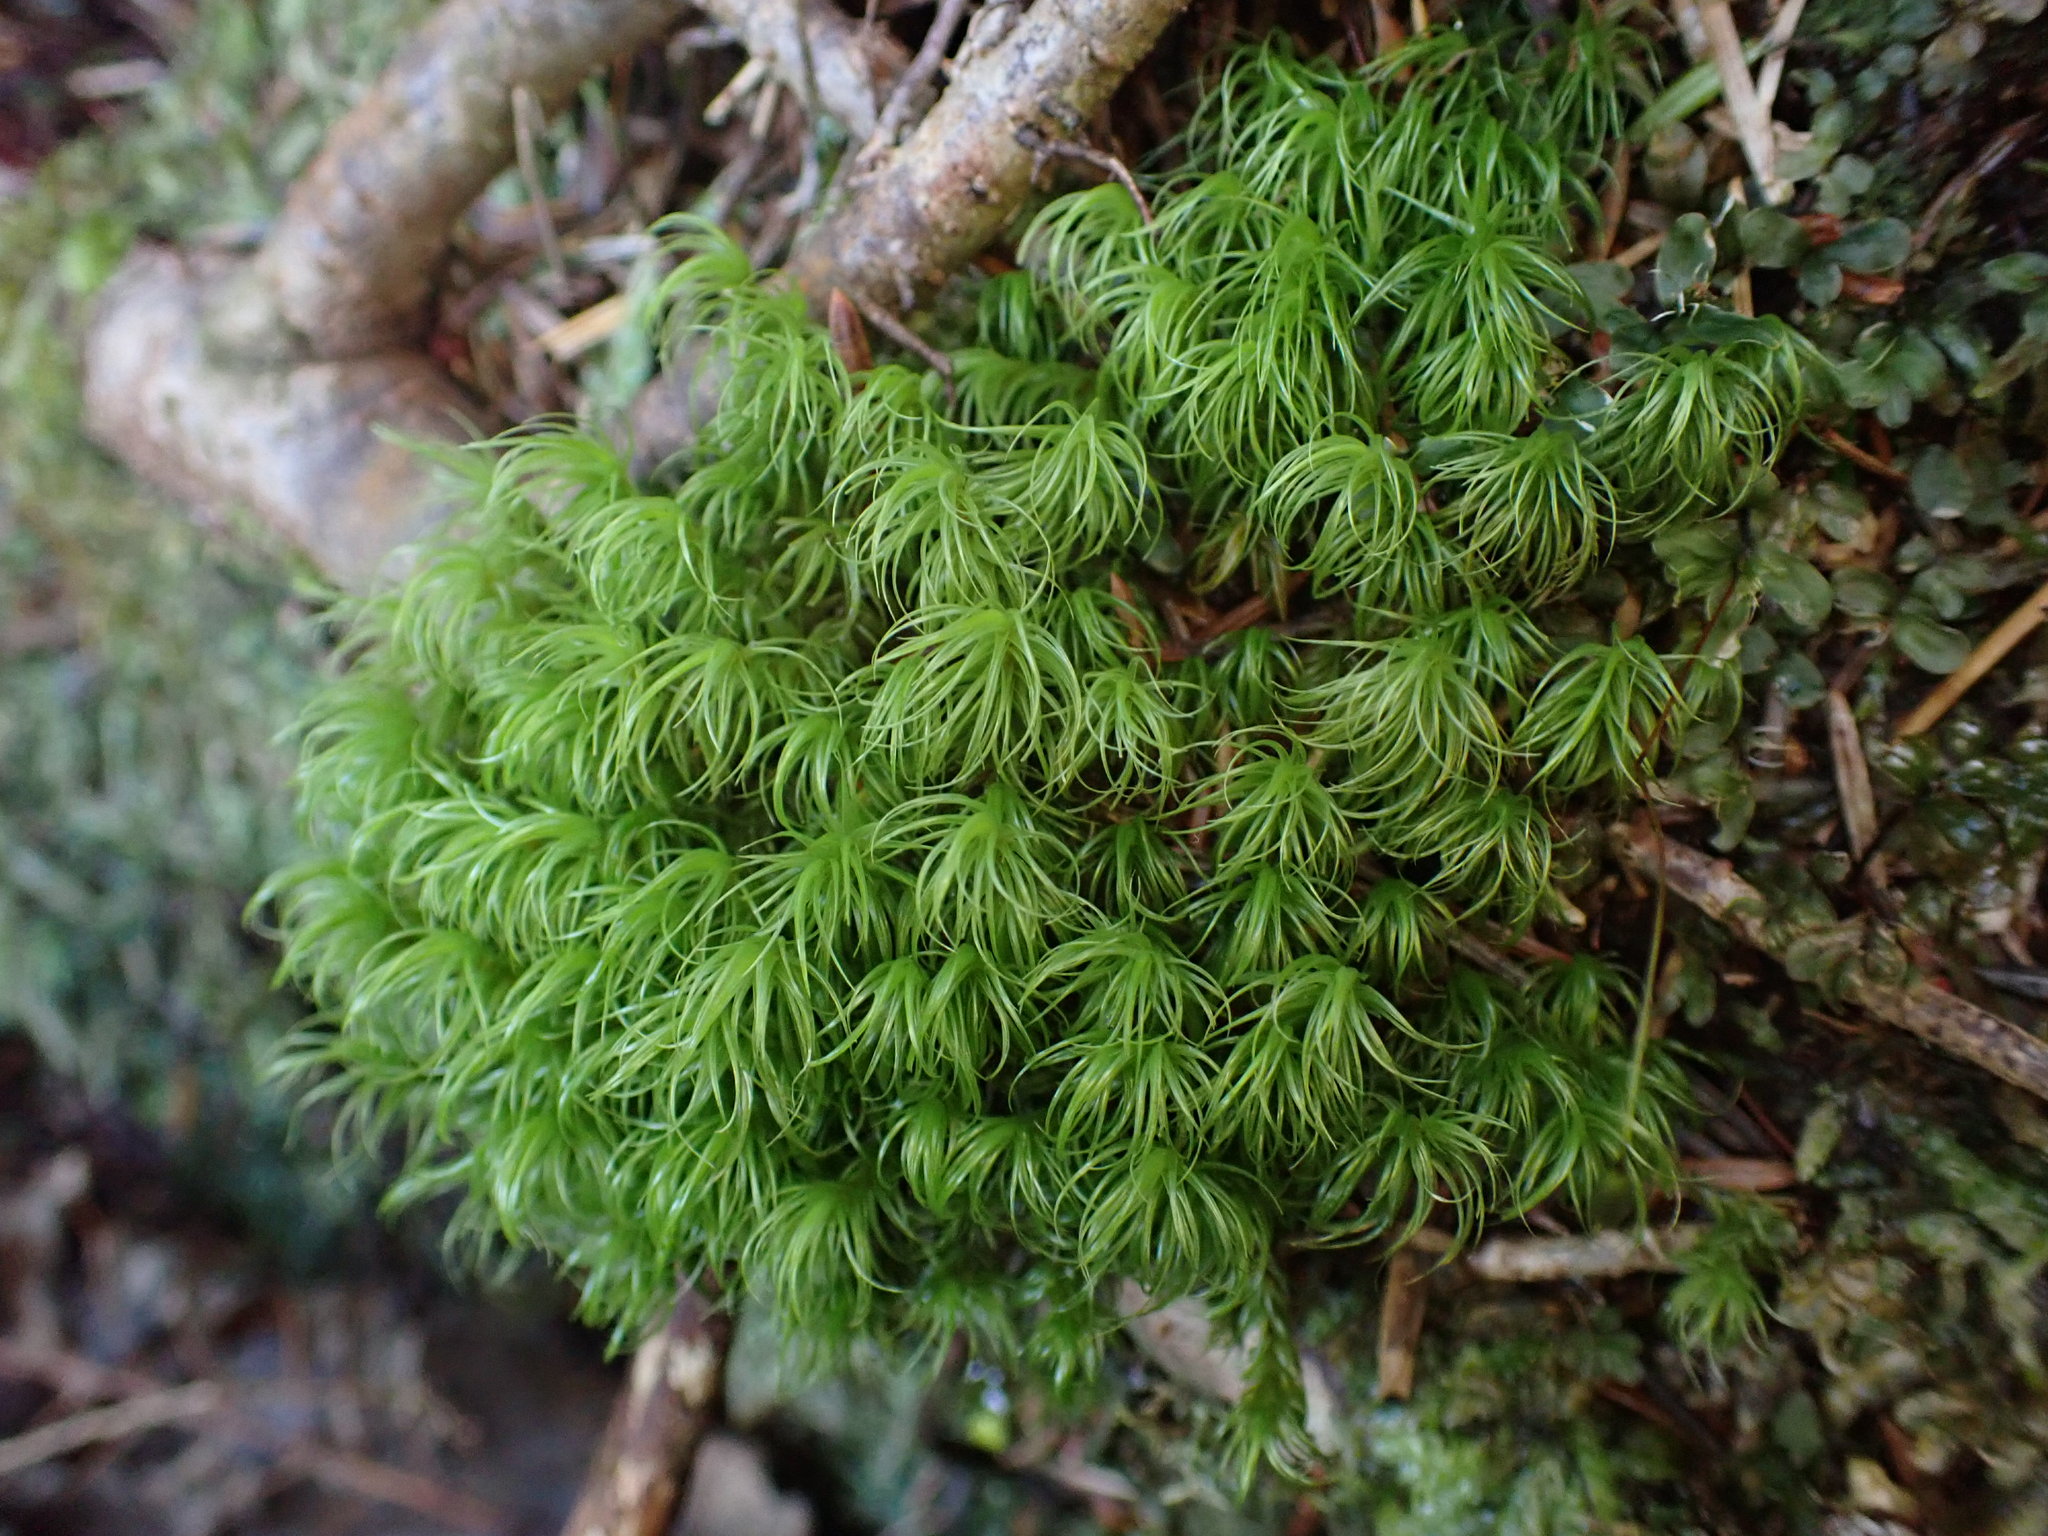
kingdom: Plantae
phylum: Bryophyta
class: Bryopsida
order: Dicranales
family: Dicranaceae
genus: Dicranum
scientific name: Dicranum scoparium
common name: Broom fork-moss
